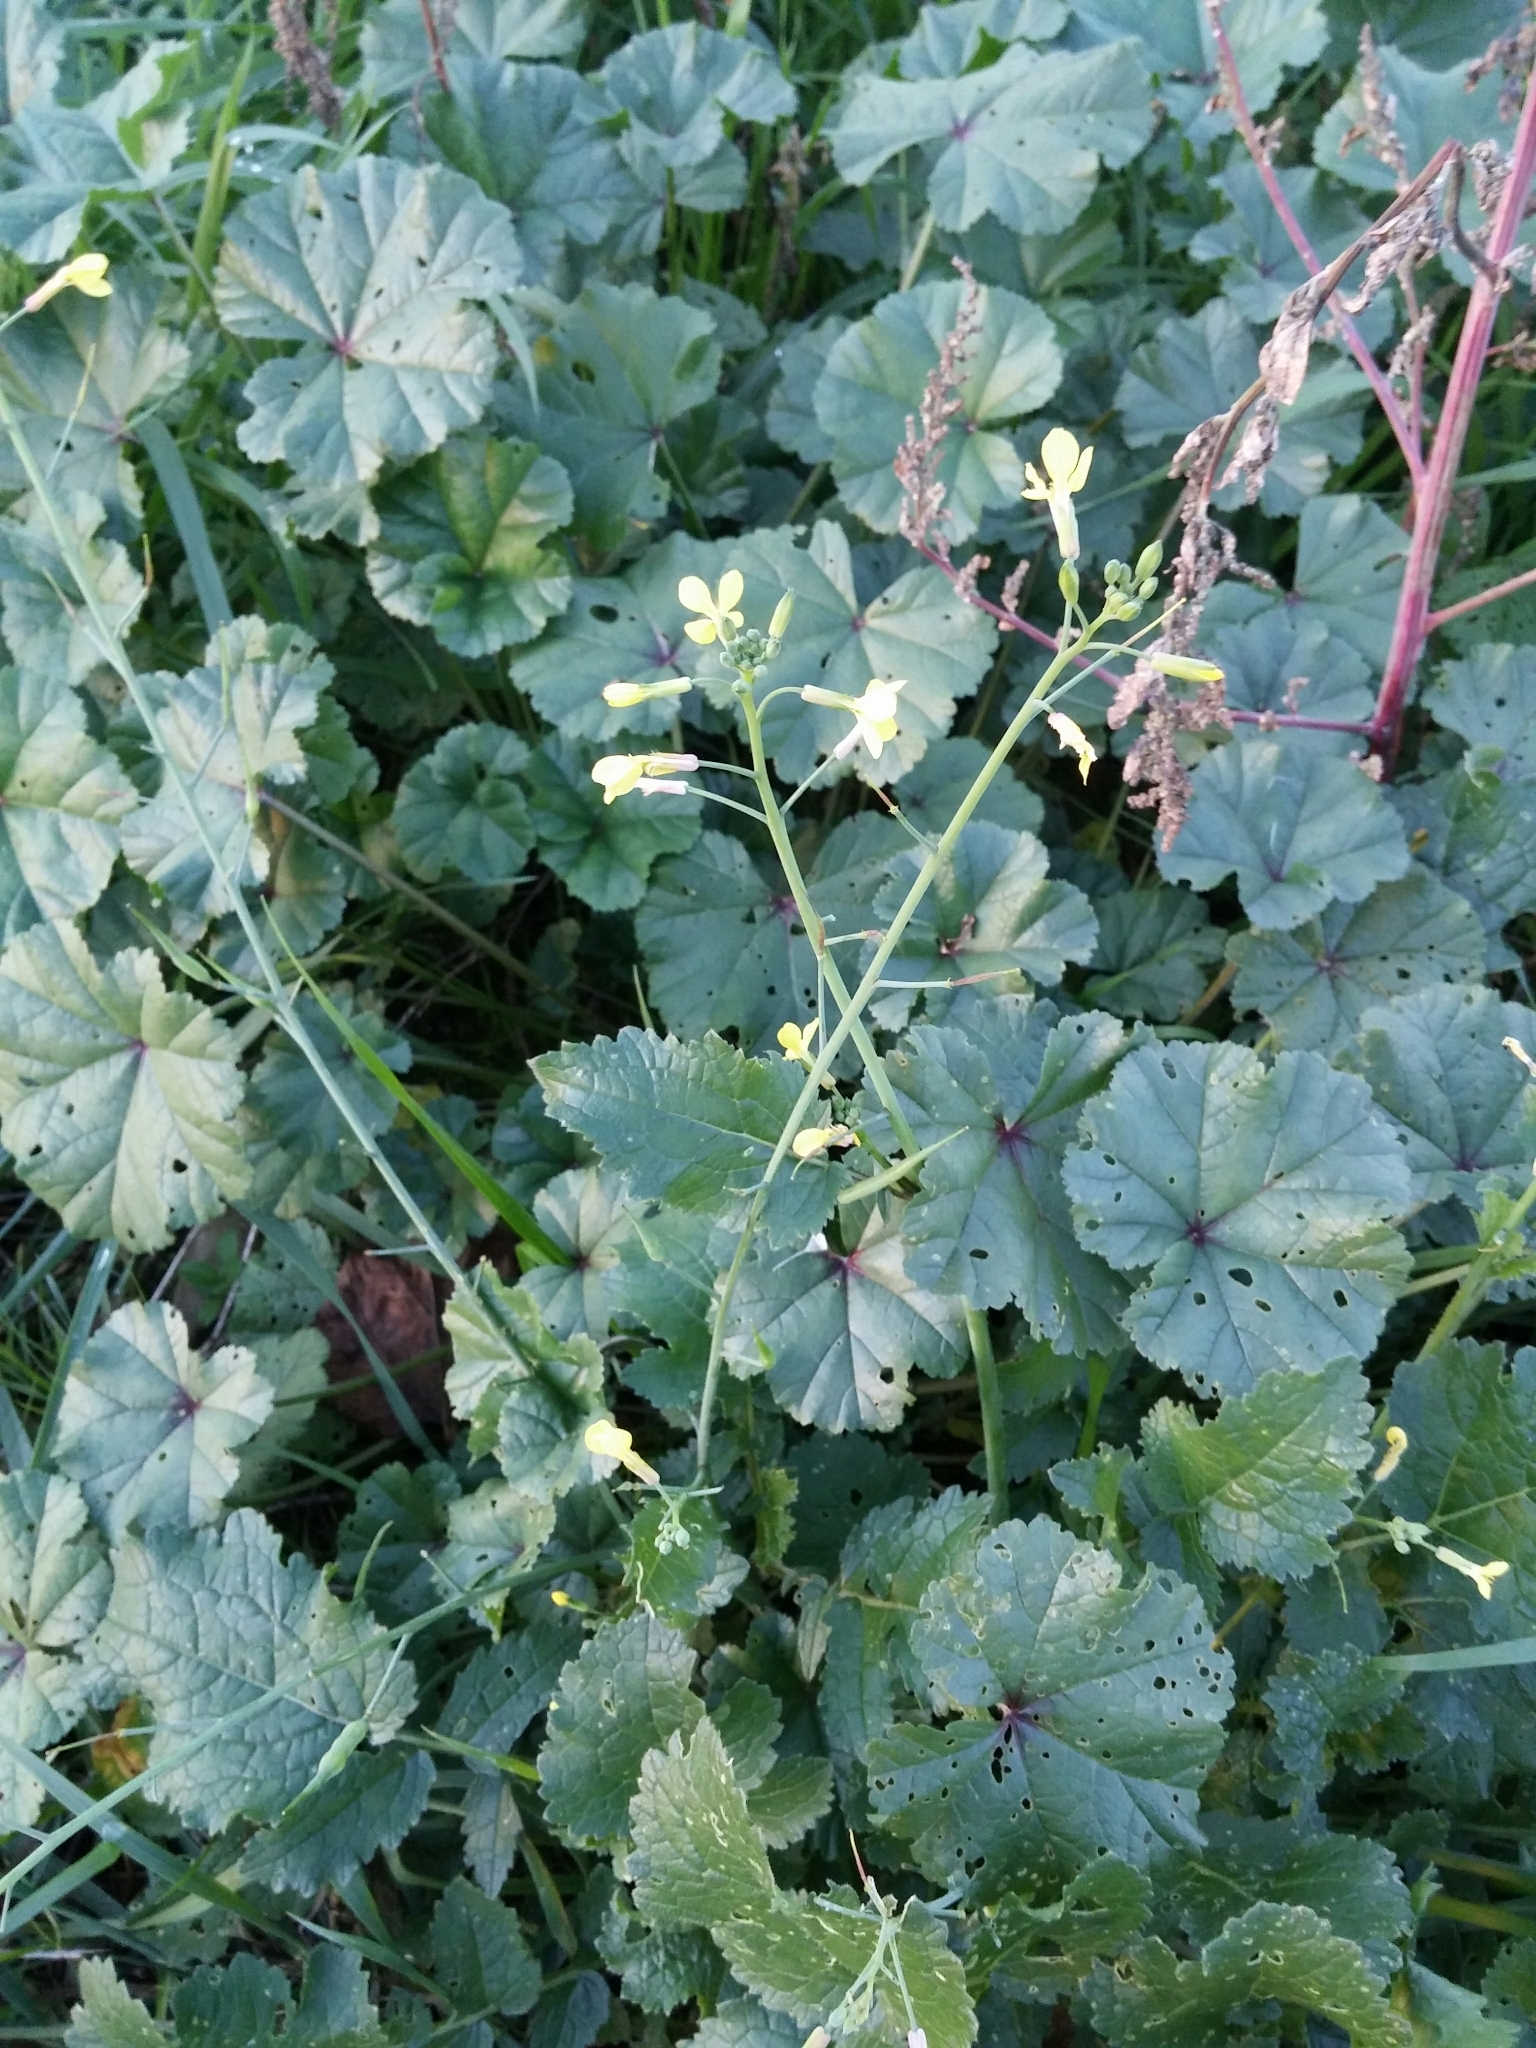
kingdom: Plantae
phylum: Tracheophyta
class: Magnoliopsida
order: Brassicales
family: Brassicaceae
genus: Raphanus
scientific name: Raphanus raphanistrum
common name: Wild radish
